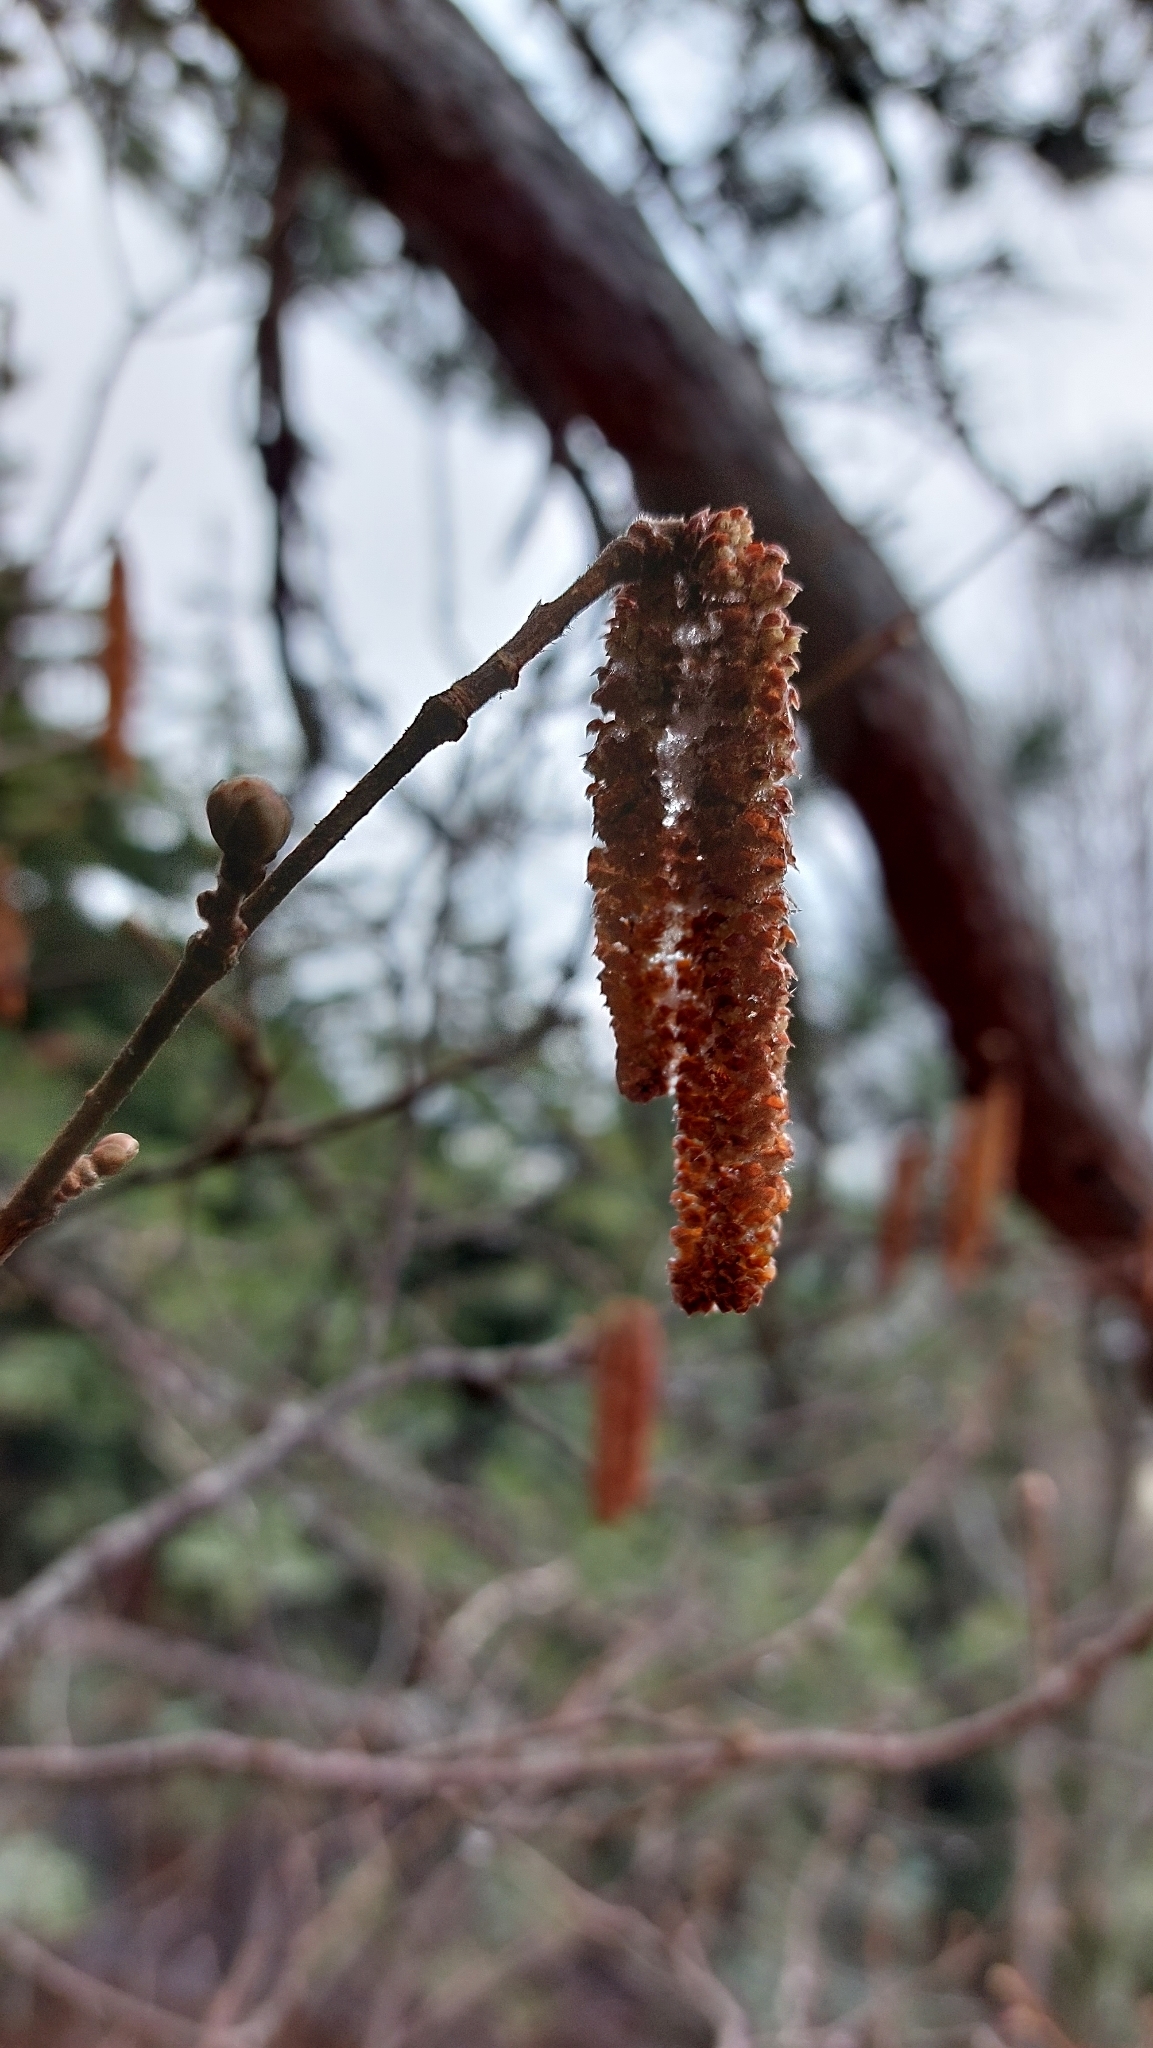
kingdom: Plantae
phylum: Tracheophyta
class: Magnoliopsida
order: Fagales
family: Betulaceae
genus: Corylus
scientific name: Corylus avellana
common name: European hazel
